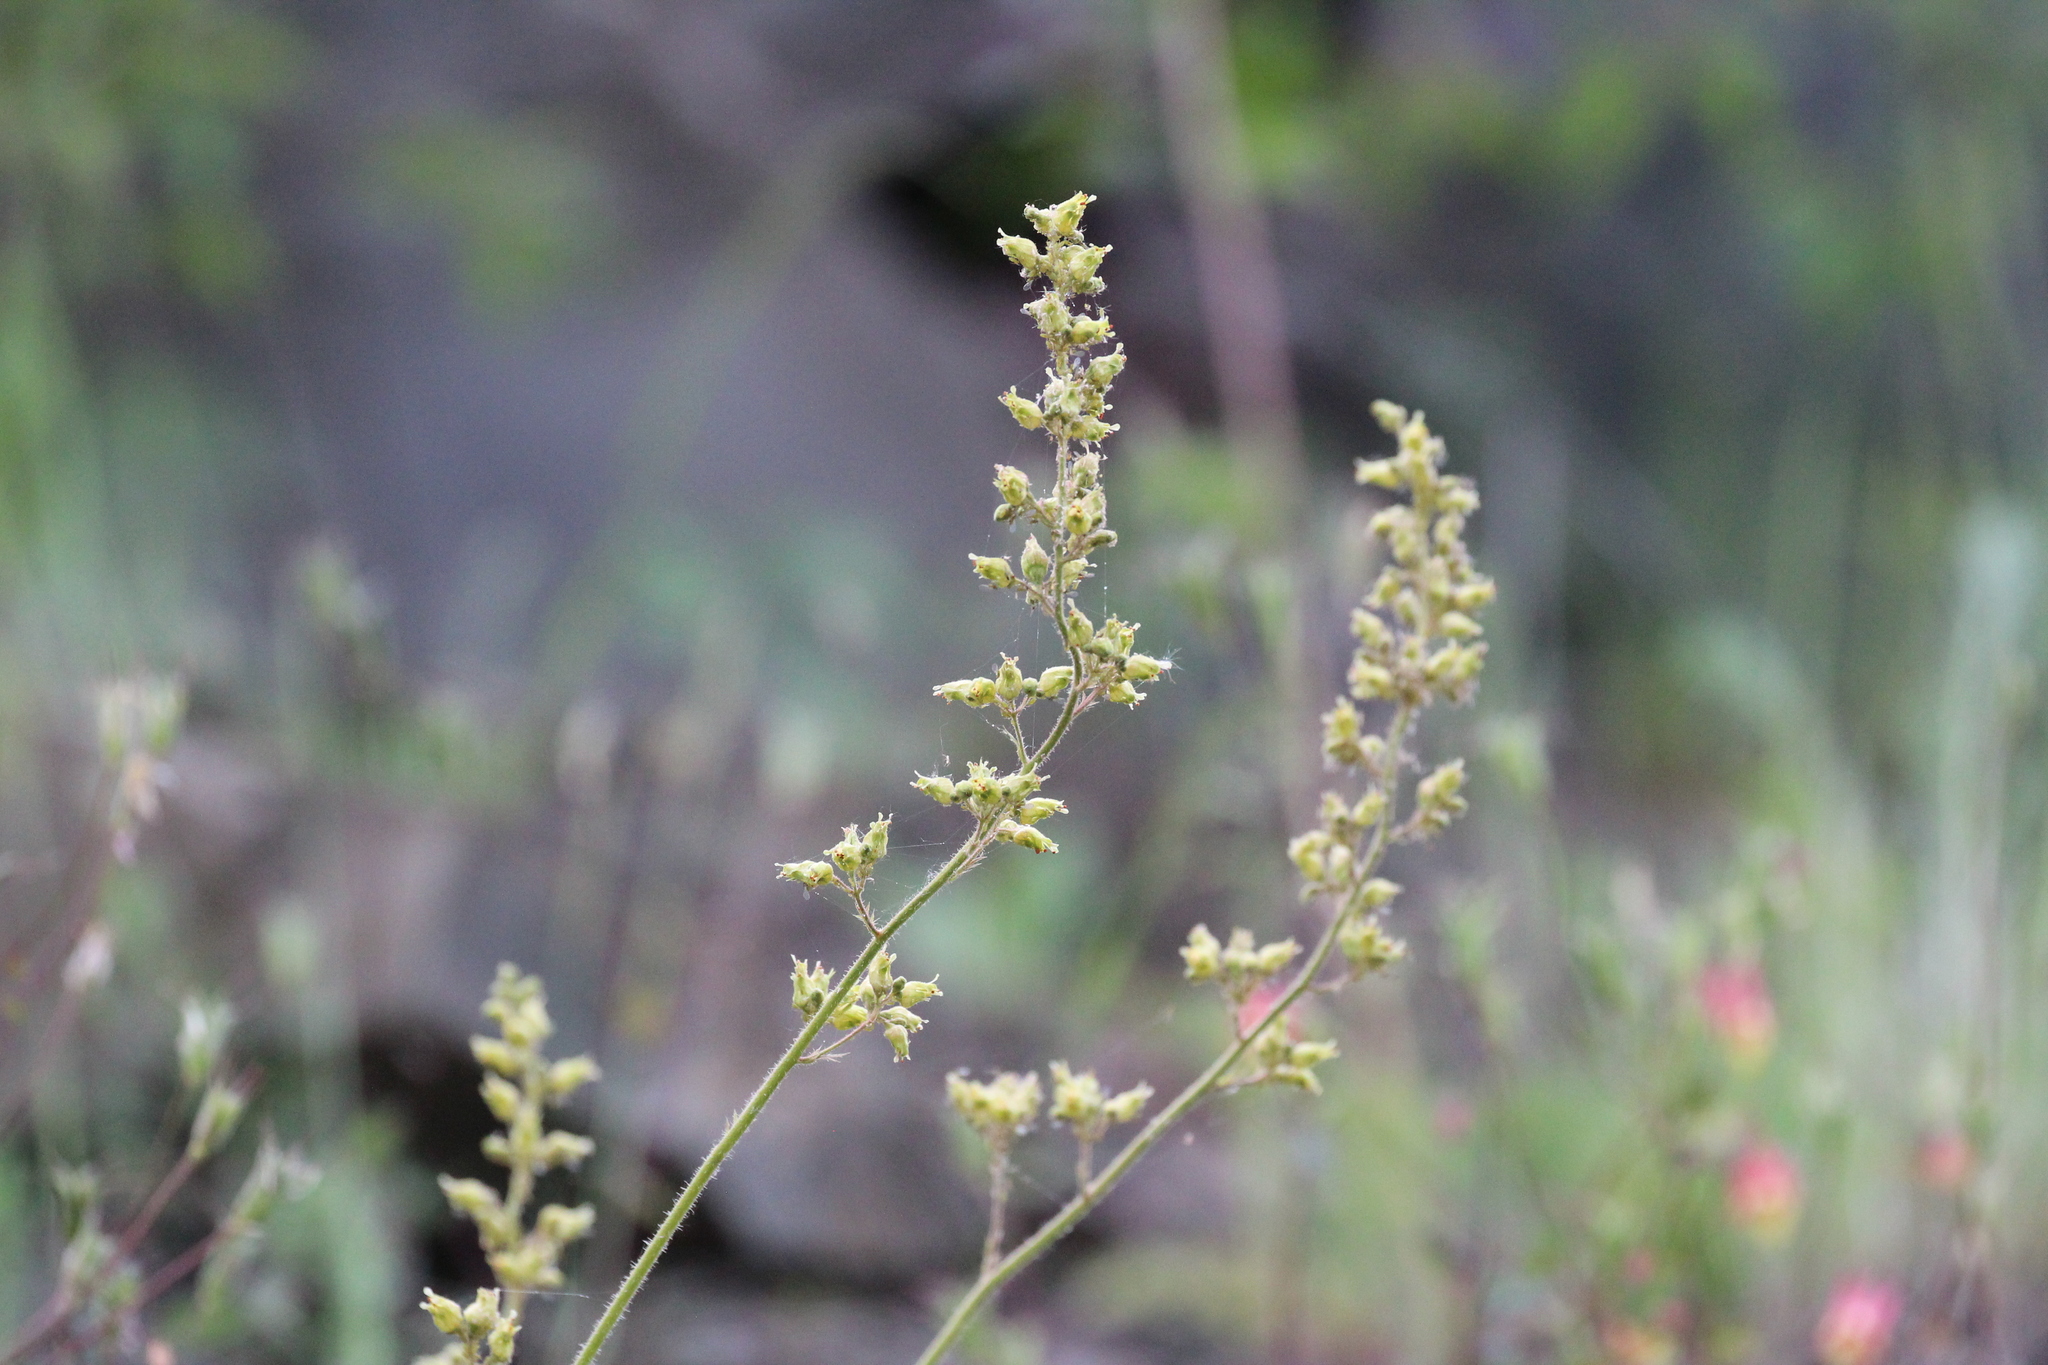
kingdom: Plantae
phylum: Tracheophyta
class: Magnoliopsida
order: Saxifragales
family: Saxifragaceae
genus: Heuchera
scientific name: Heuchera richardsonii
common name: Richardson's alumroot
